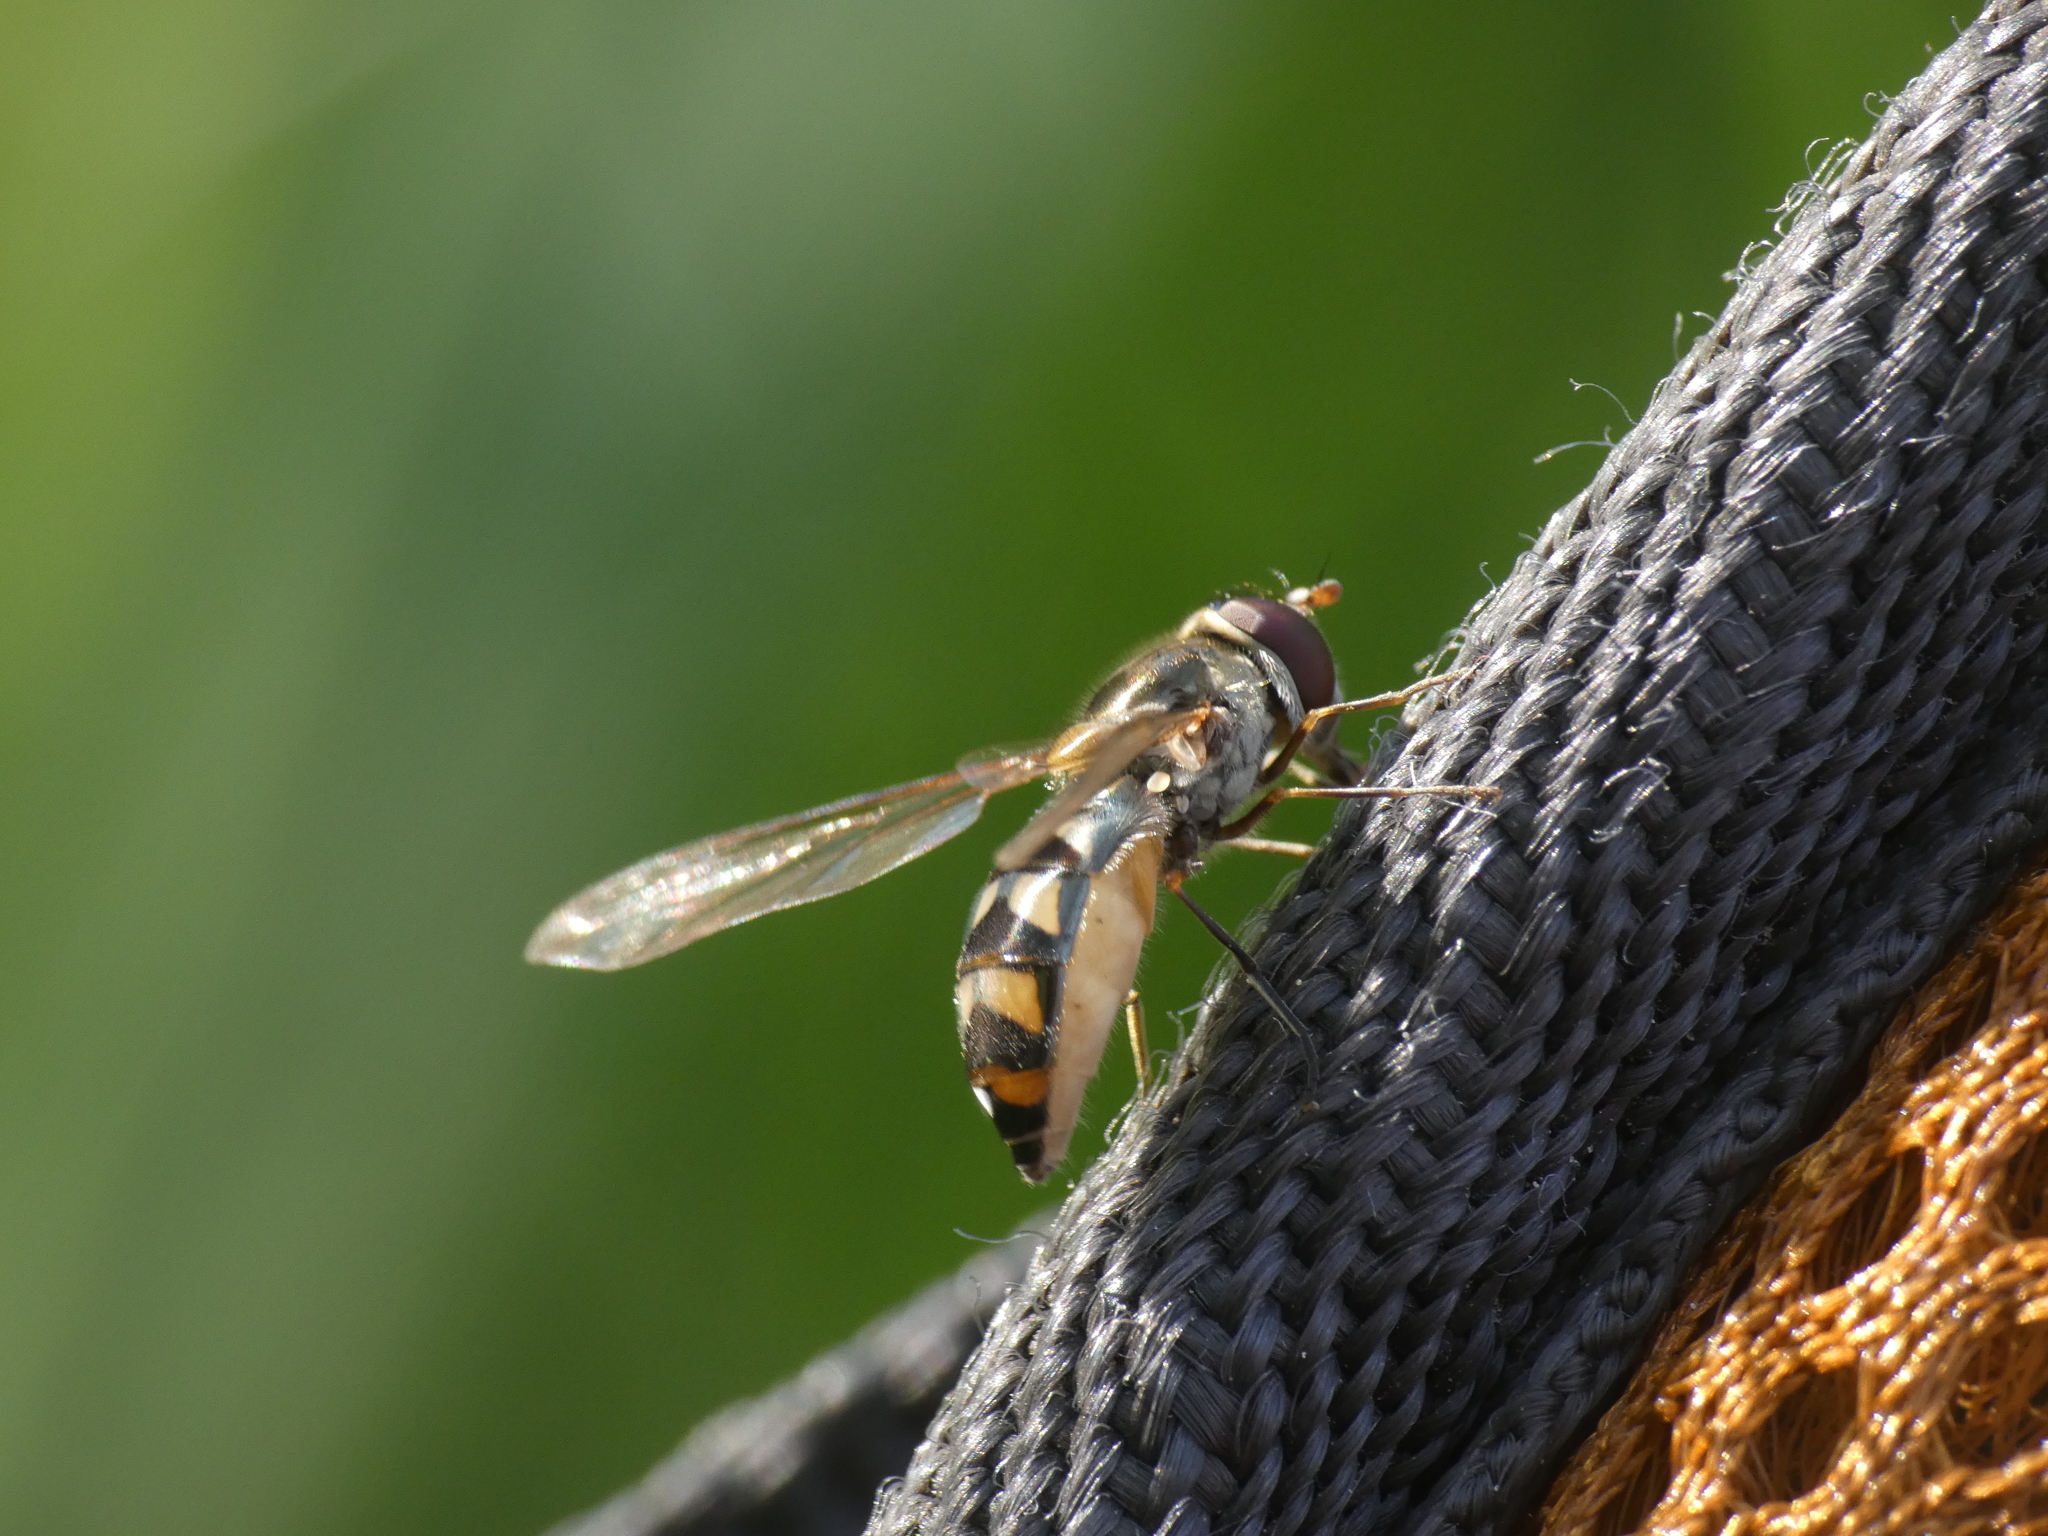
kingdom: Animalia
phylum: Arthropoda
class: Insecta
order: Diptera
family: Syrphidae
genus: Meliscaeva
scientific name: Meliscaeva auricollis
